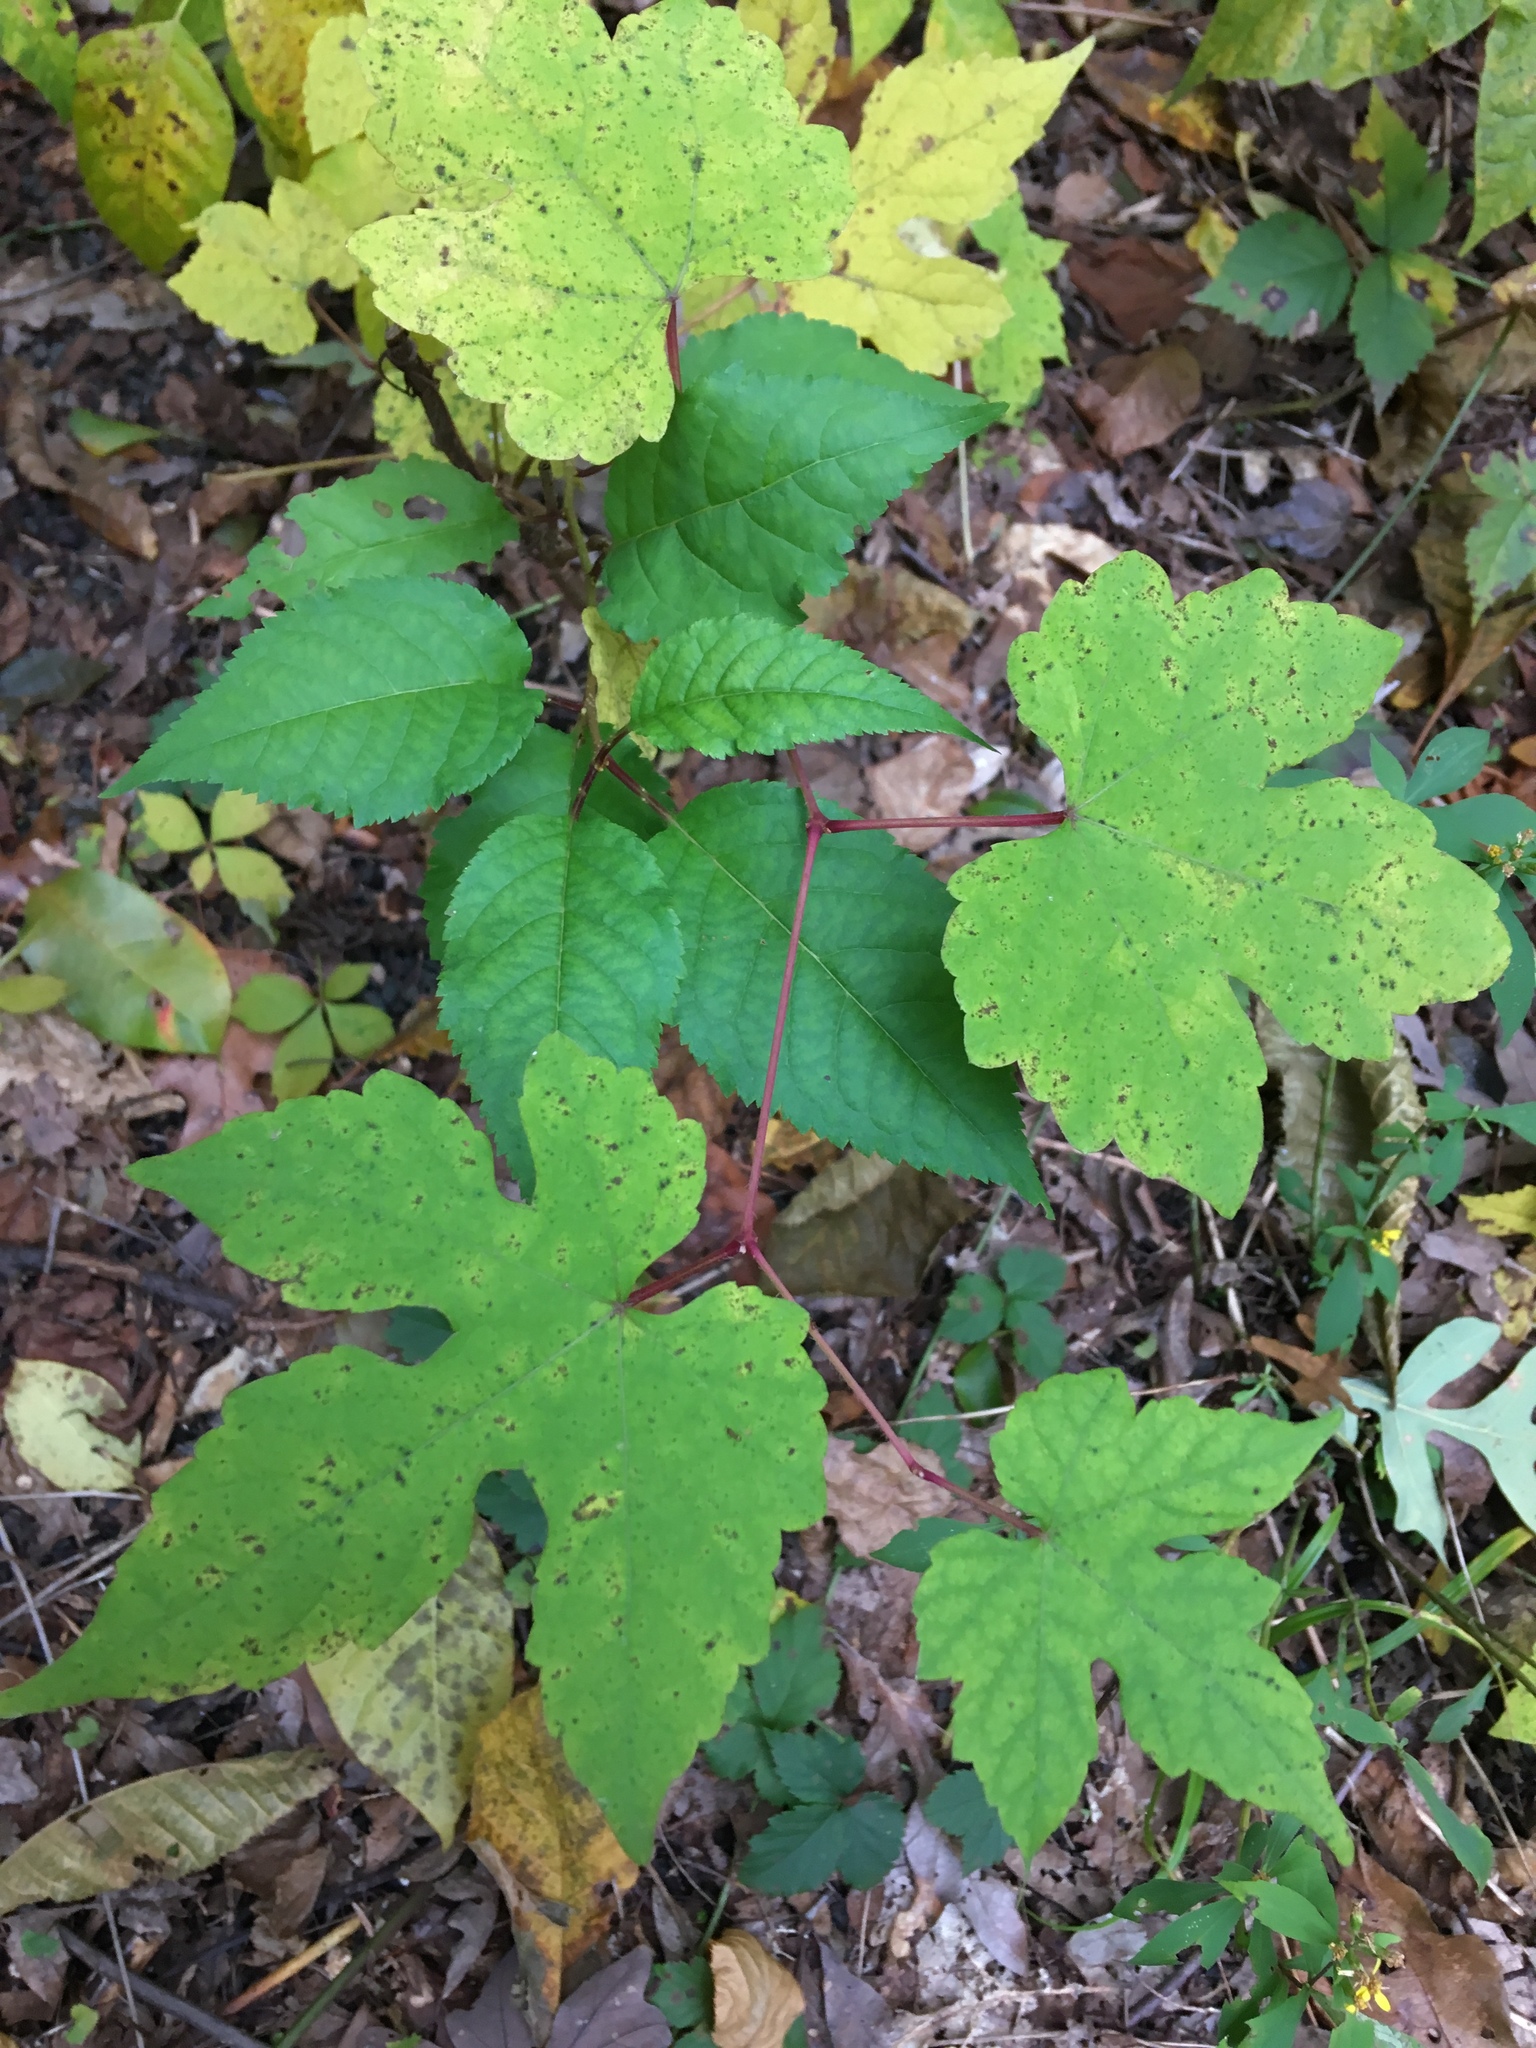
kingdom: Plantae
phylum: Tracheophyta
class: Magnoliopsida
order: Vitales
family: Vitaceae
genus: Ampelopsis
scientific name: Ampelopsis glandulosa
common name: Amur peppervine
